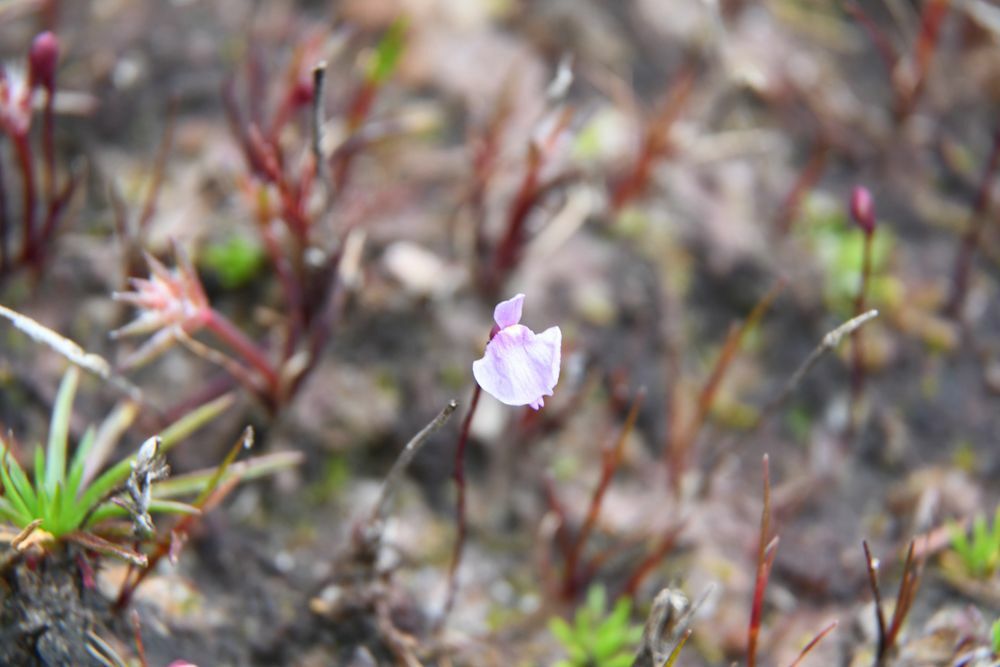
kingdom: Plantae
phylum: Tracheophyta
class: Magnoliopsida
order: Lamiales
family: Lentibulariaceae
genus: Utricularia
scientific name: Utricularia simplex
